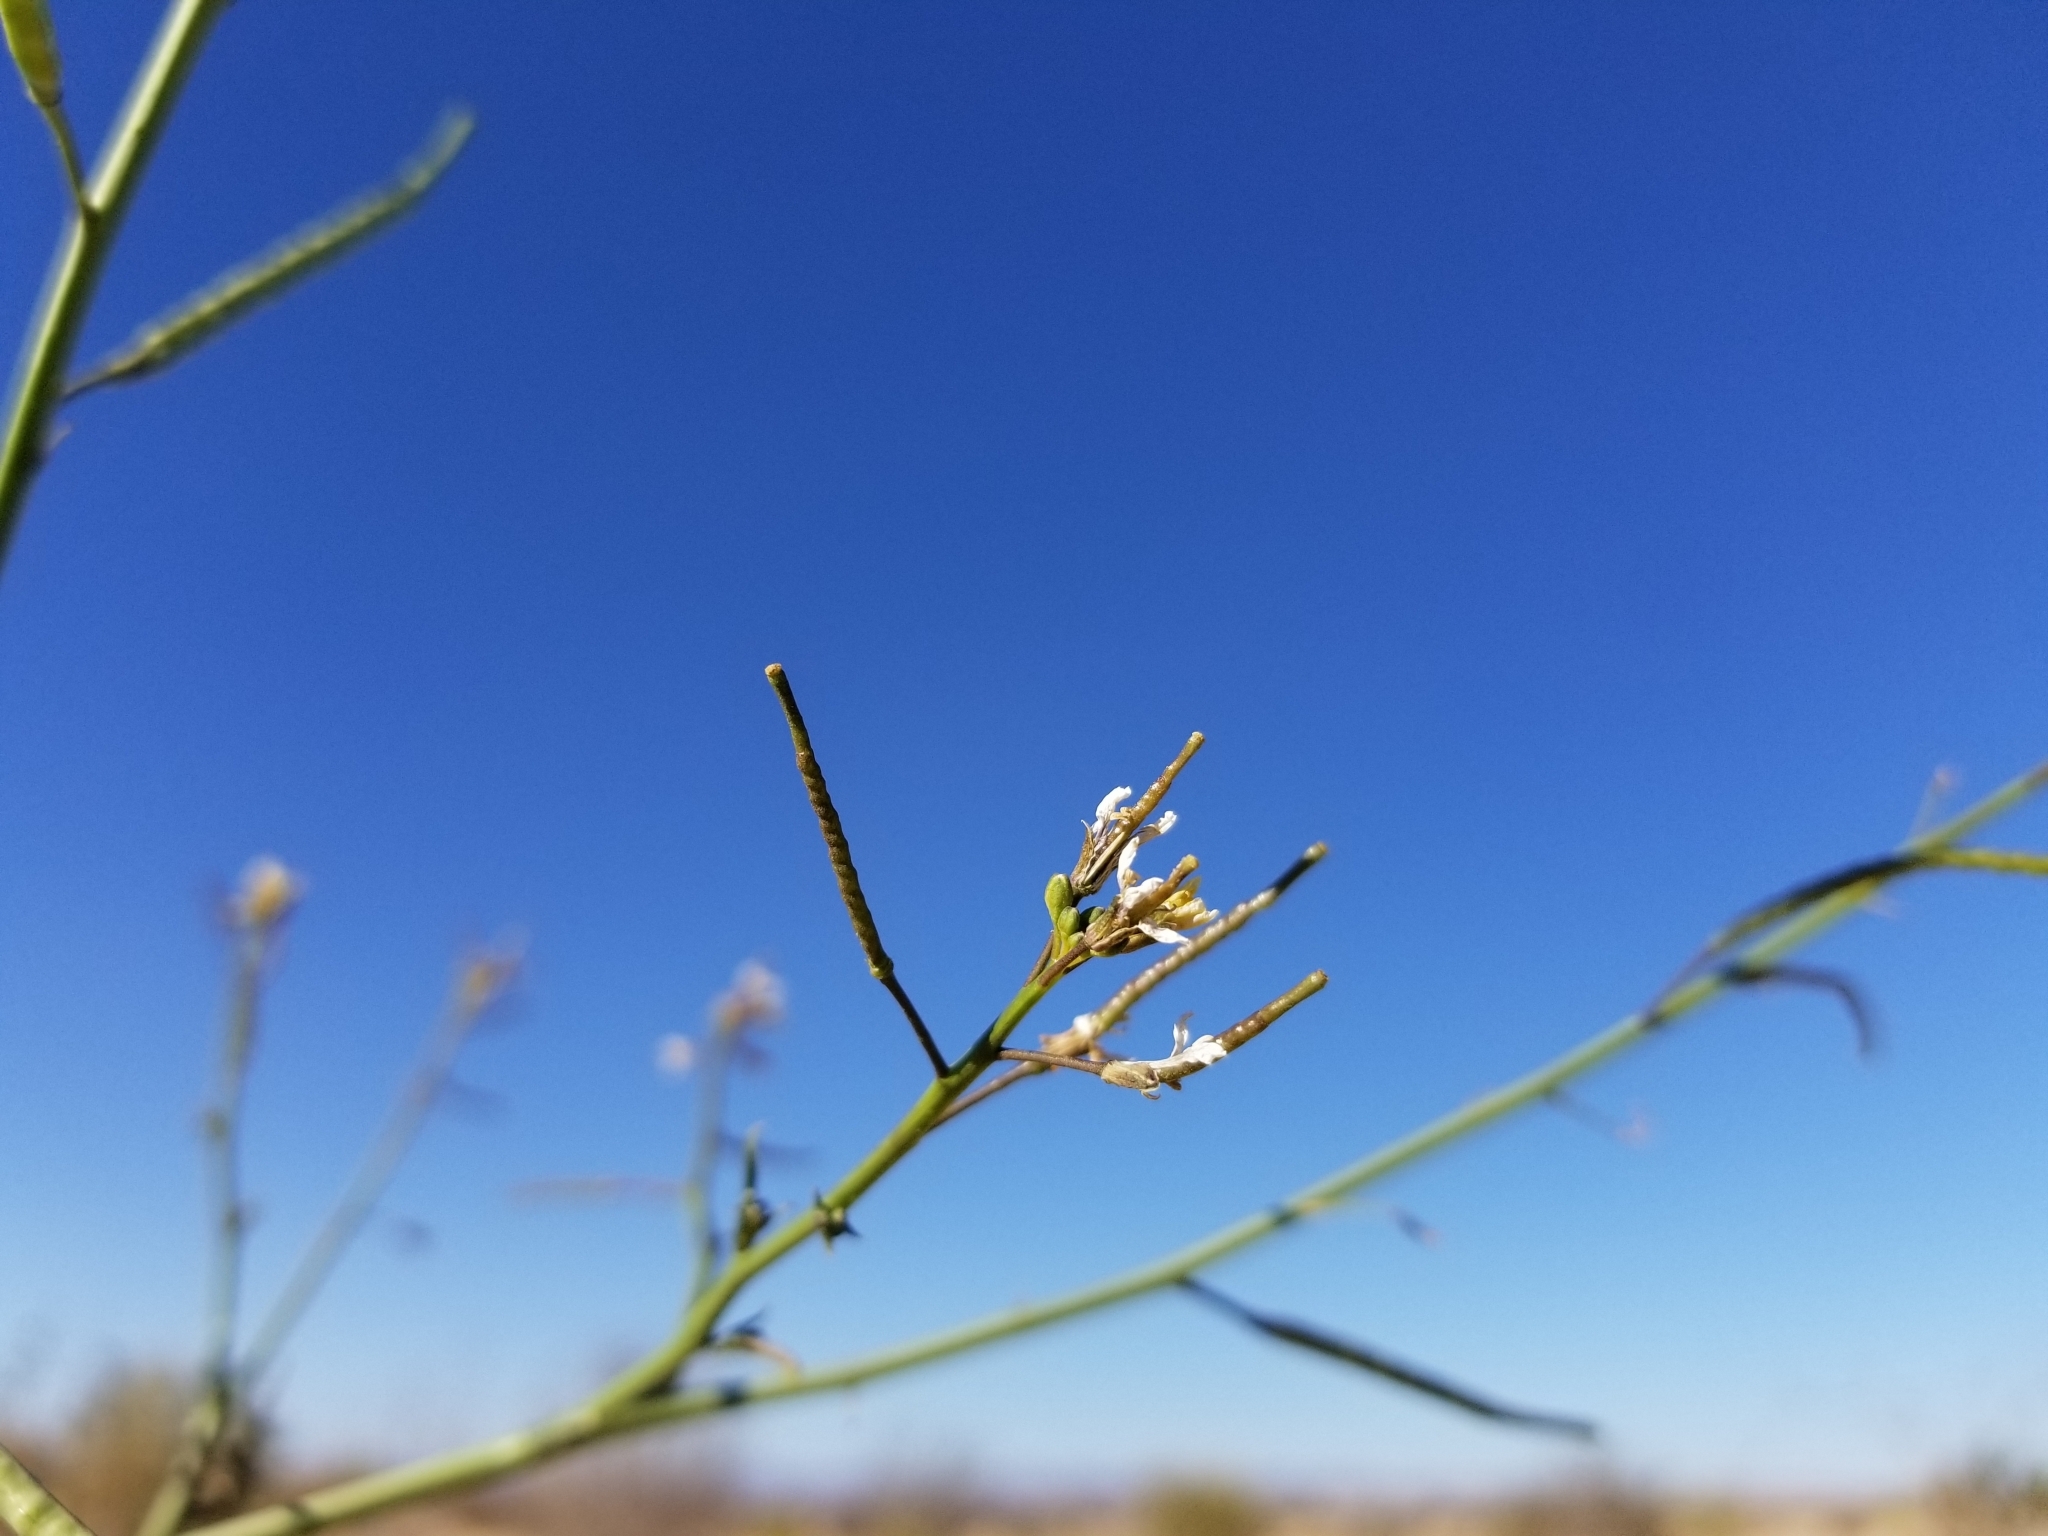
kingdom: Plantae
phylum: Tracheophyta
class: Magnoliopsida
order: Brassicales
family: Brassicaceae
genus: Brassica
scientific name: Brassica tournefortii
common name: Pale cabbage
